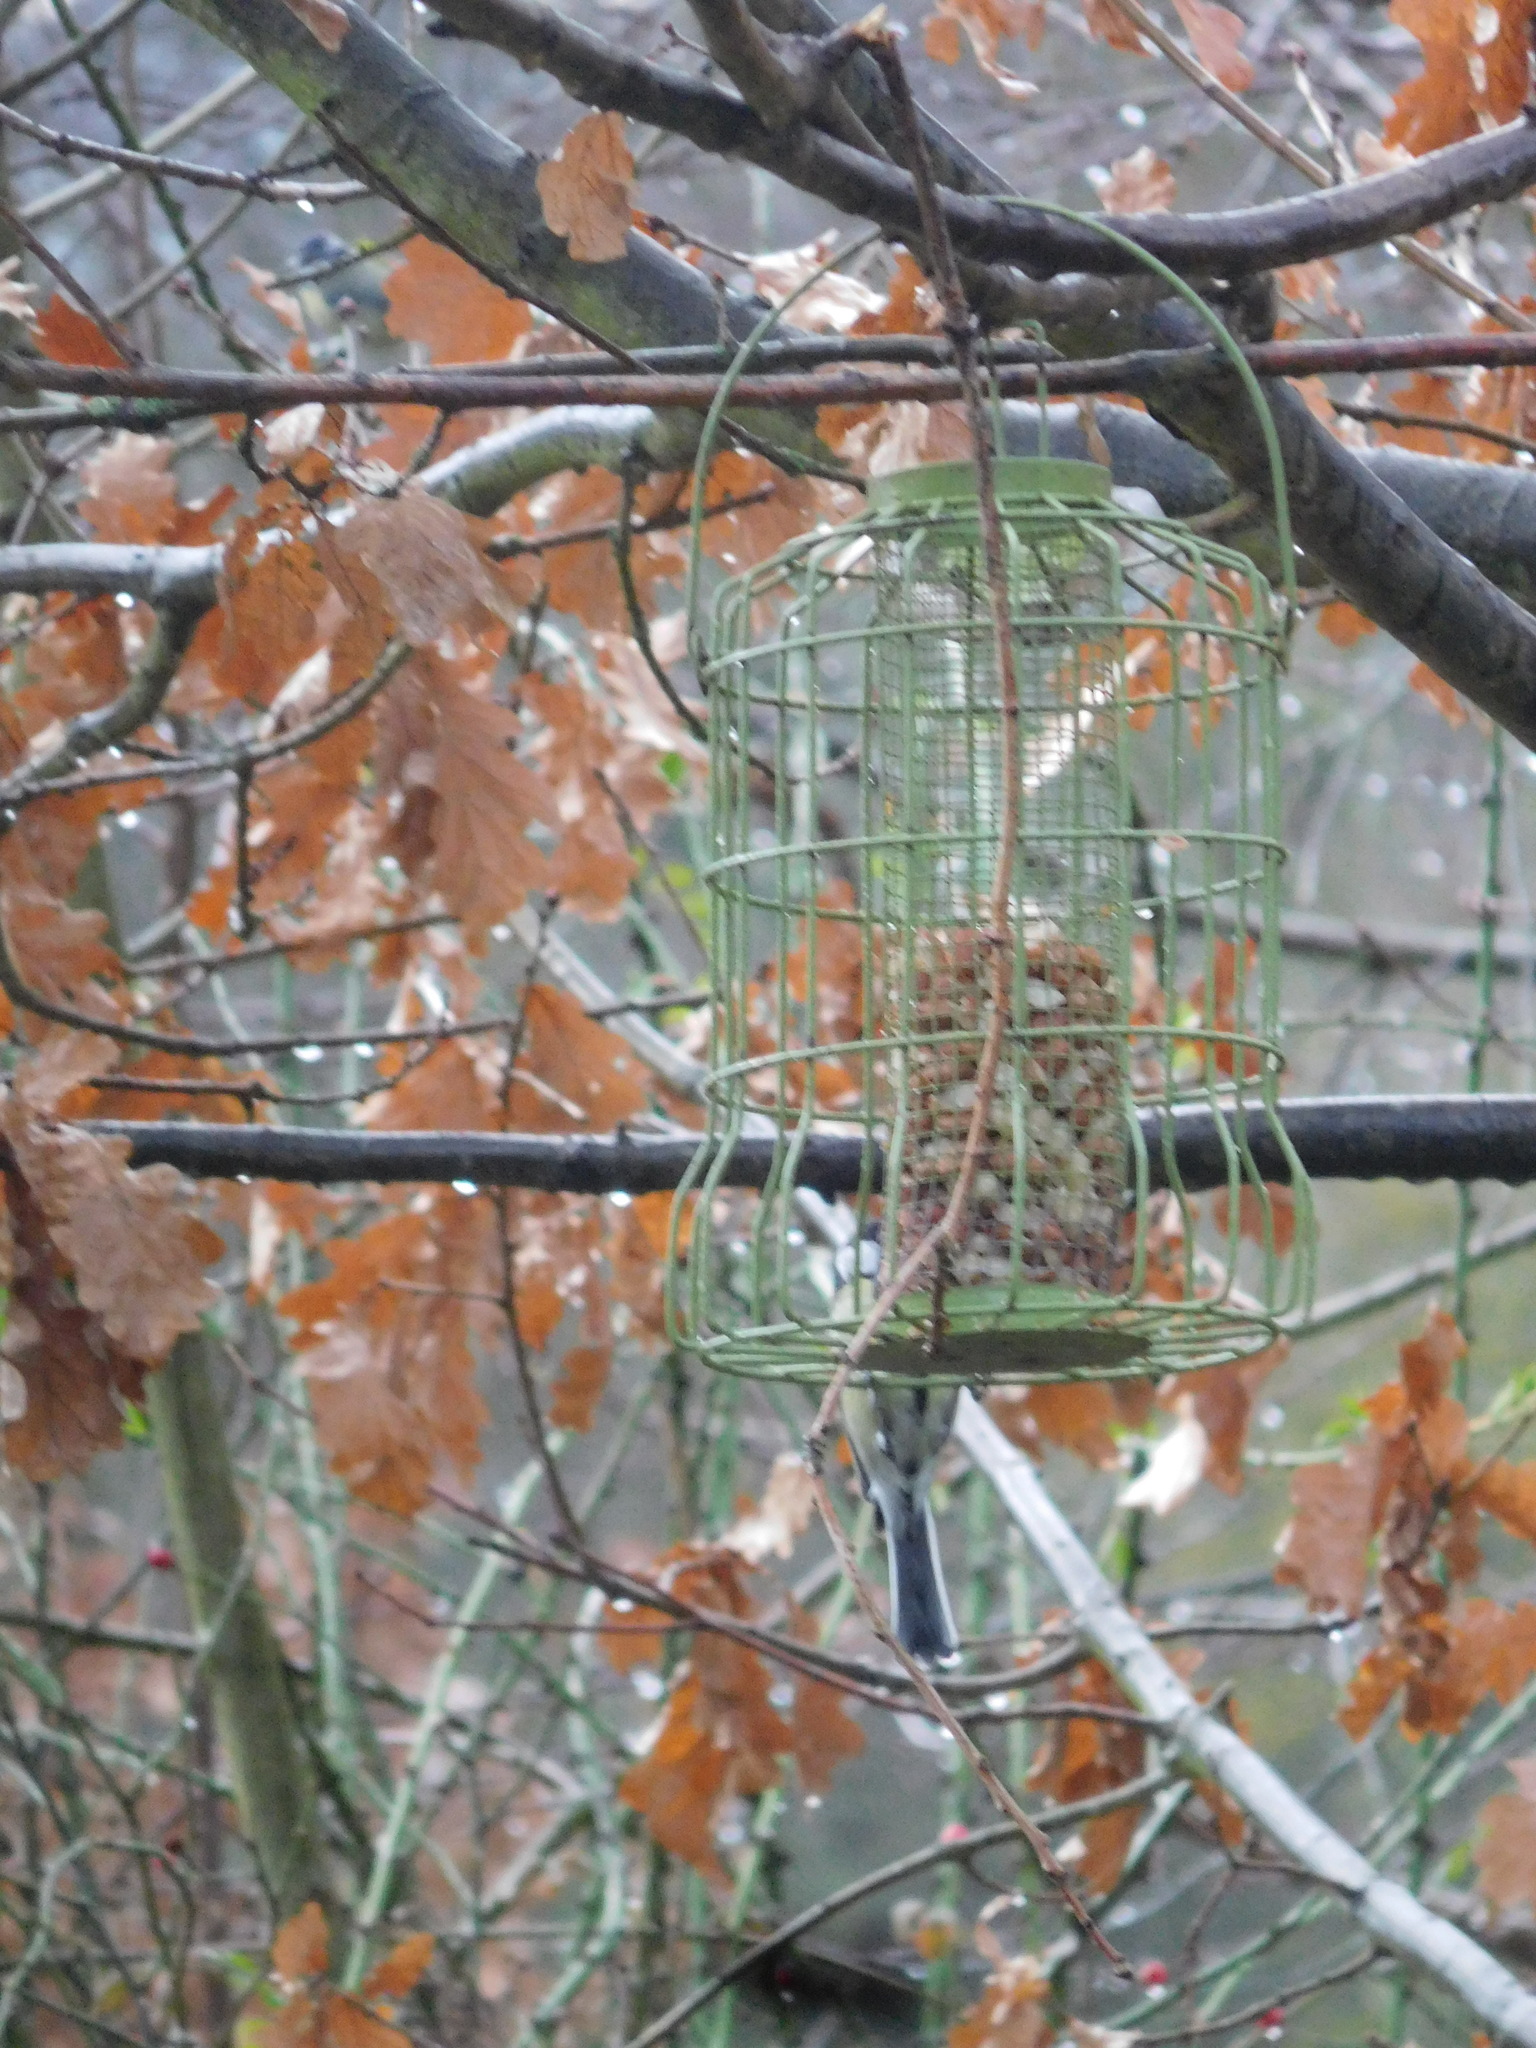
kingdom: Animalia
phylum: Chordata
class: Aves
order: Passeriformes
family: Paridae
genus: Parus
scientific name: Parus major
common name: Great tit
